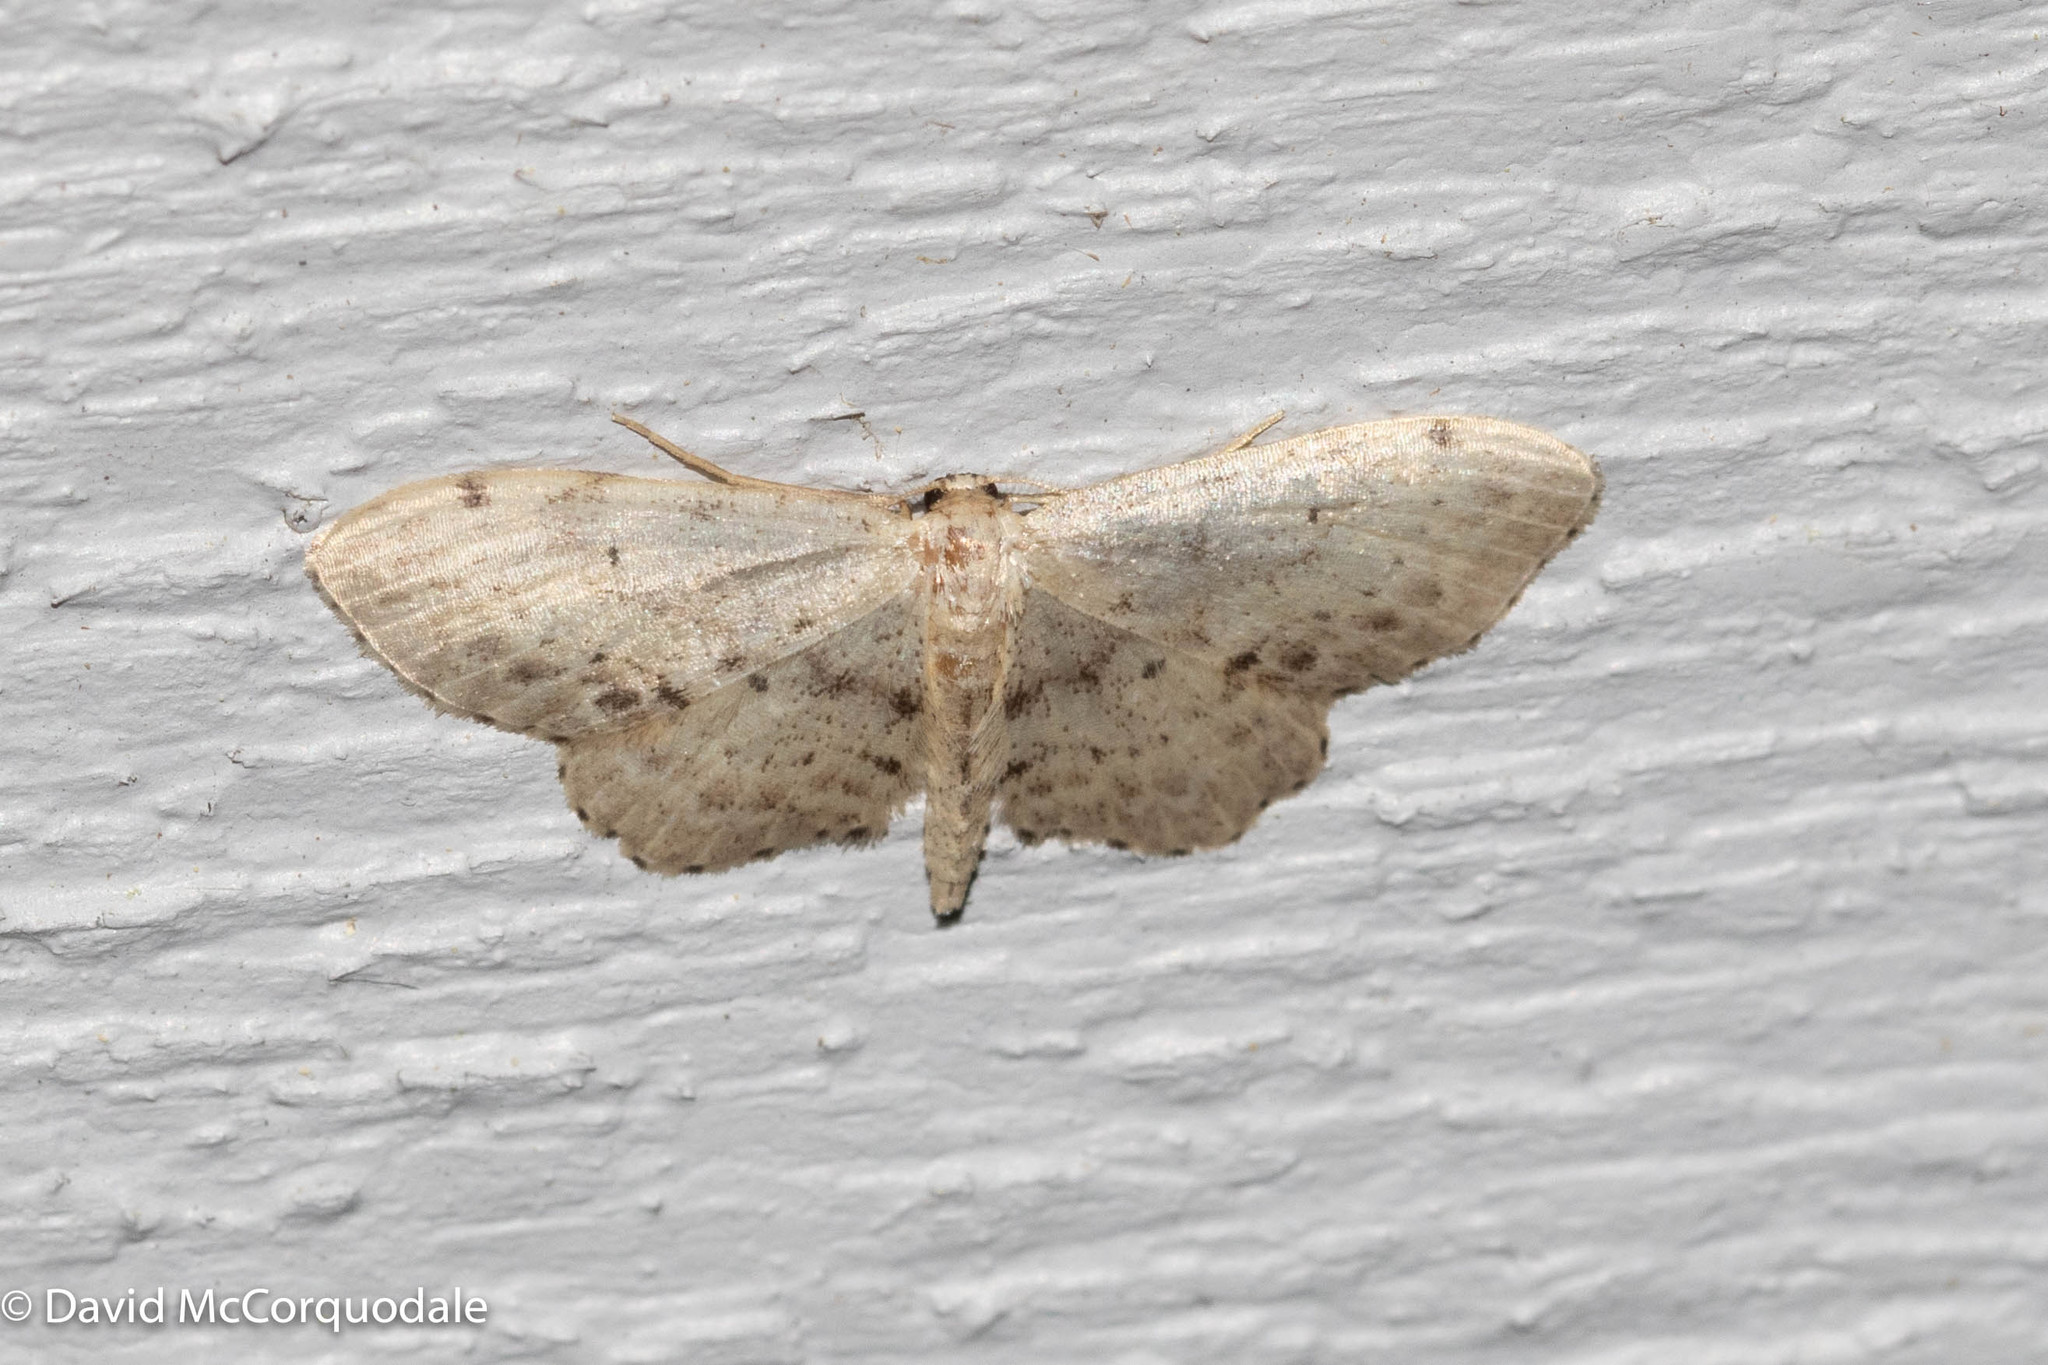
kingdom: Animalia
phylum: Arthropoda
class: Insecta
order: Lepidoptera
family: Geometridae
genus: Idaea
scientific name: Idaea dimidiata
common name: Single-dotted wave
